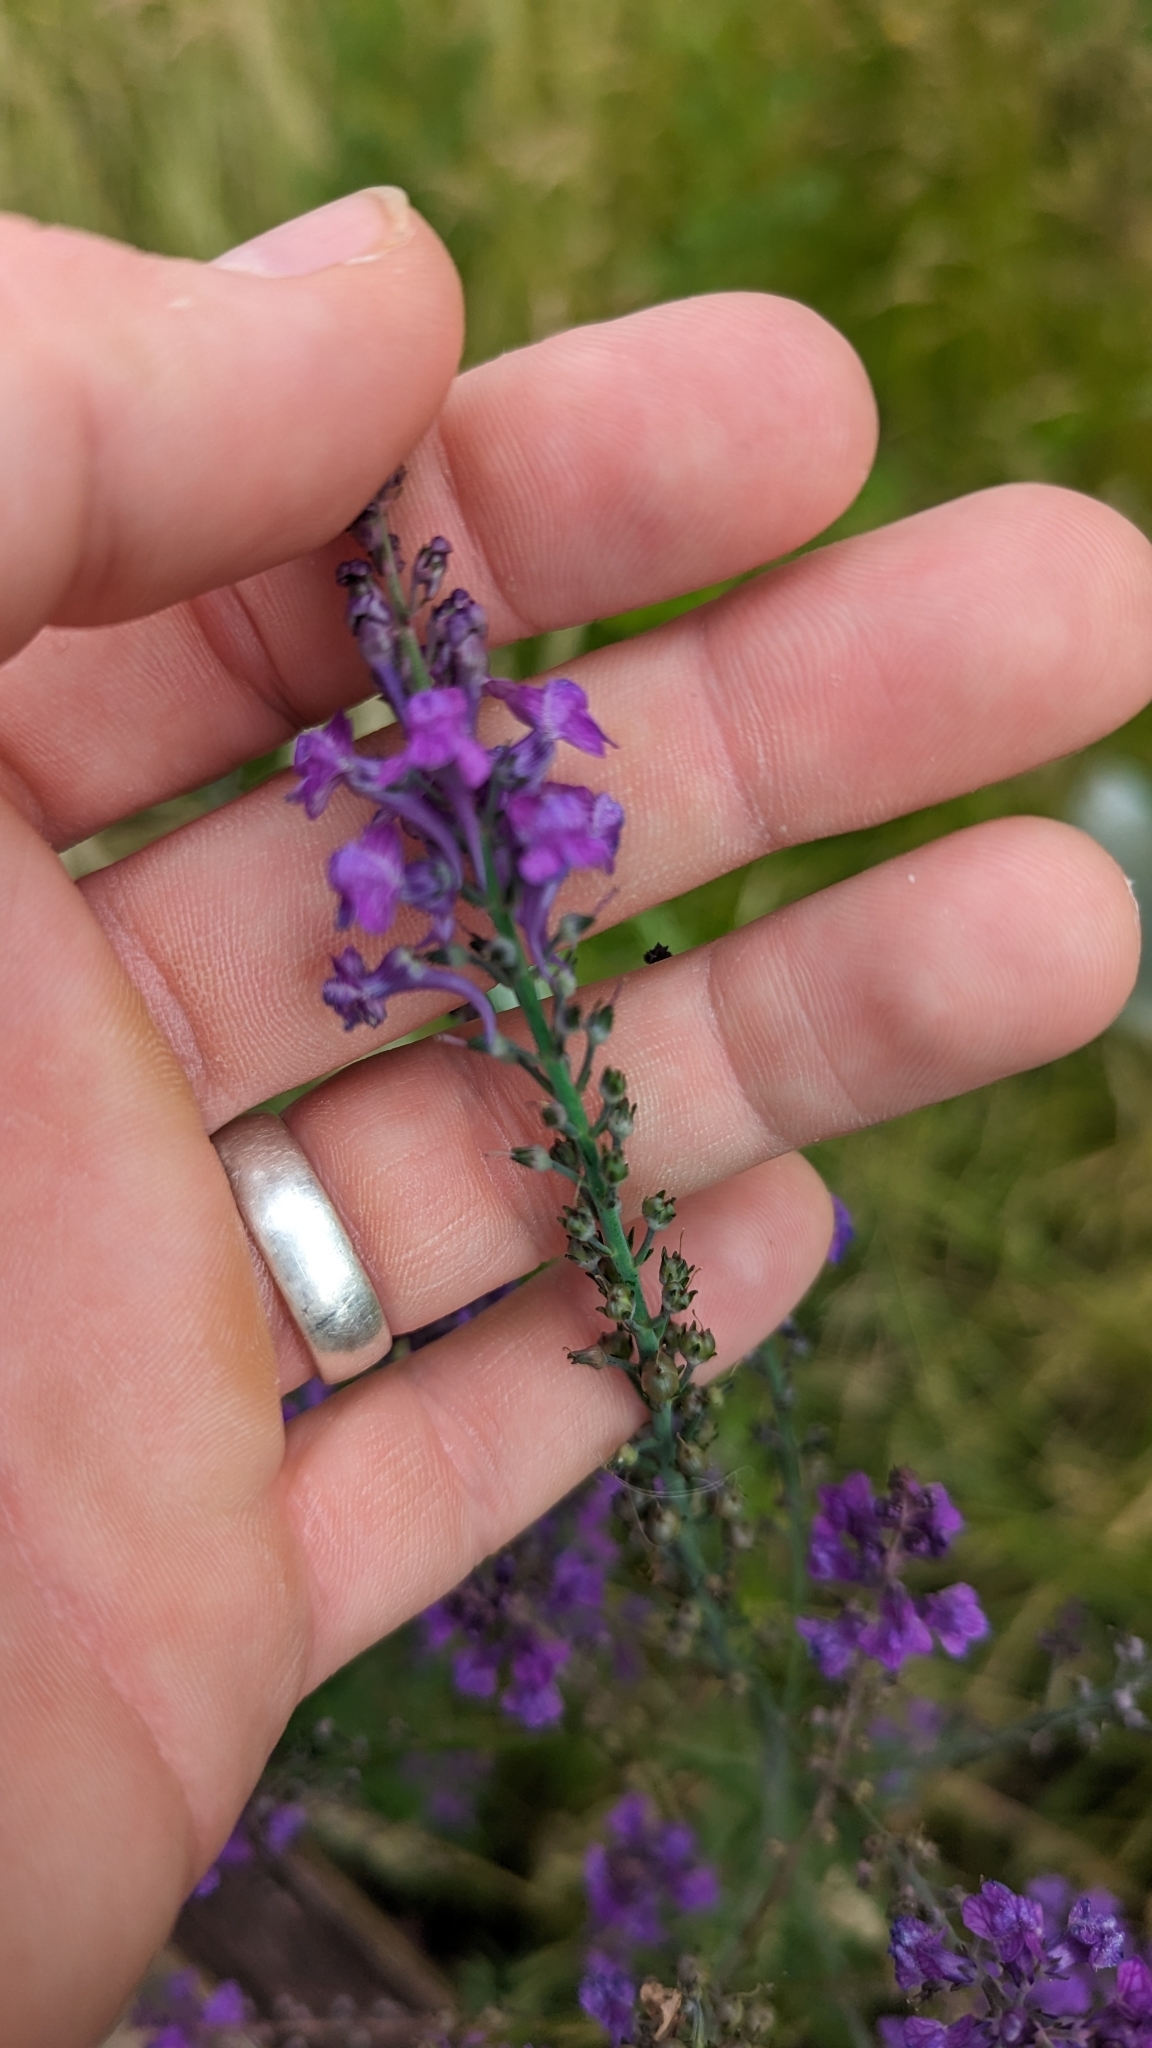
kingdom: Plantae
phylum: Tracheophyta
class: Magnoliopsida
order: Lamiales
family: Plantaginaceae
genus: Linaria
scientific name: Linaria purpurea
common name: Purple toadflax
